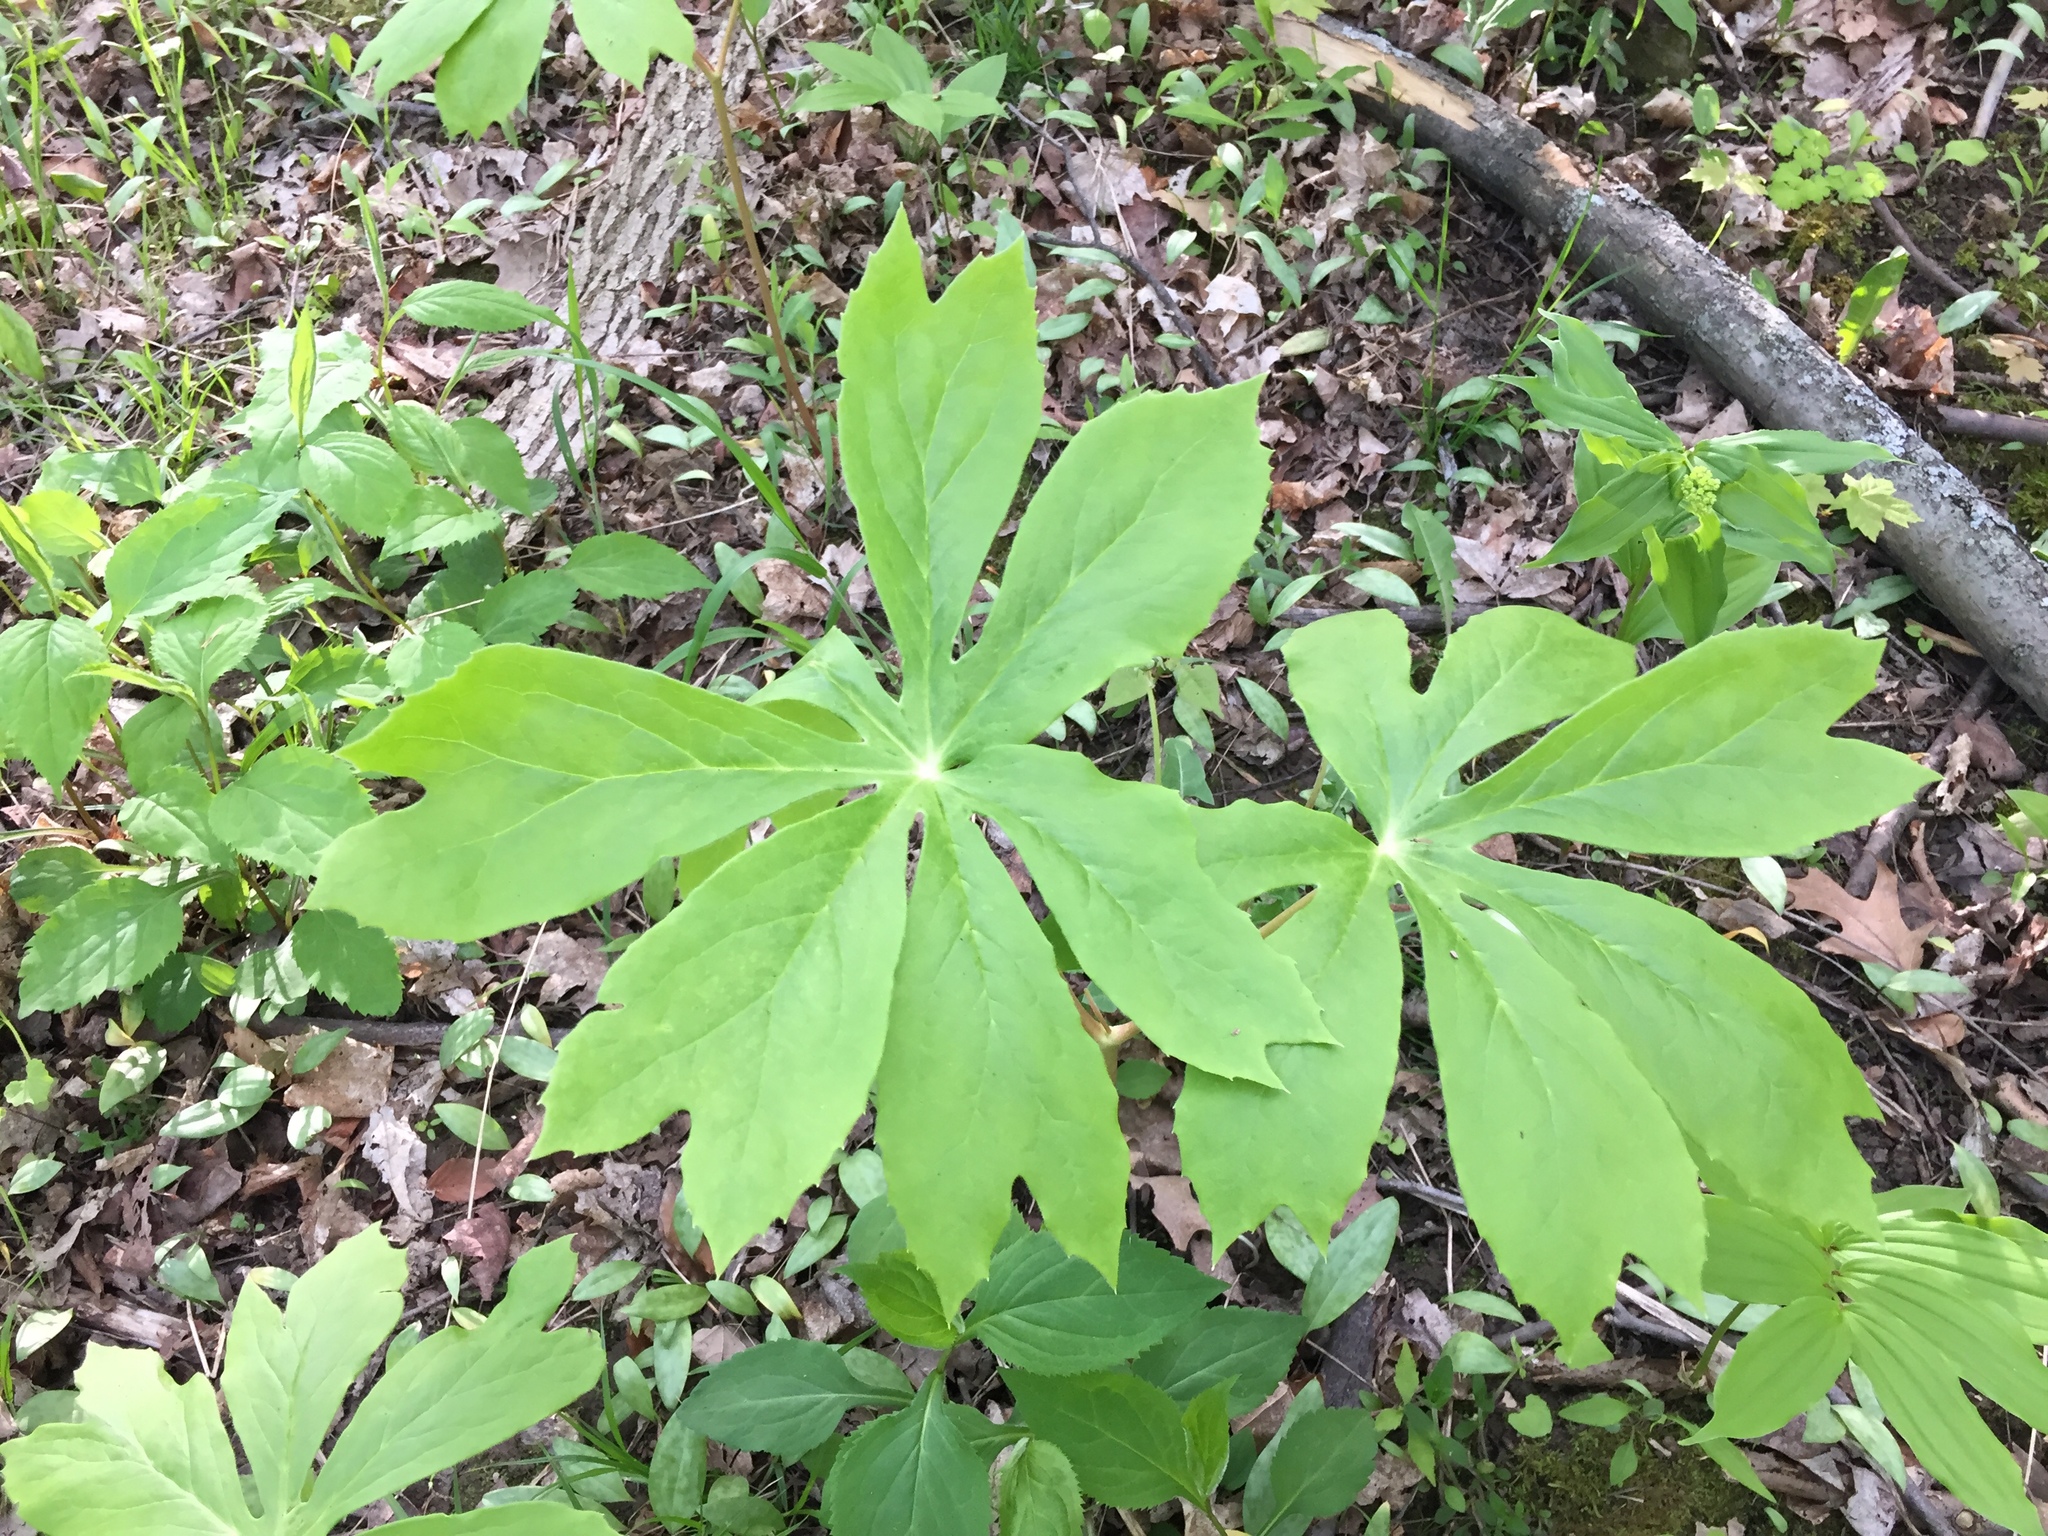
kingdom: Plantae
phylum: Tracheophyta
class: Magnoliopsida
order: Ranunculales
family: Berberidaceae
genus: Podophyllum
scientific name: Podophyllum peltatum
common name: Wild mandrake
